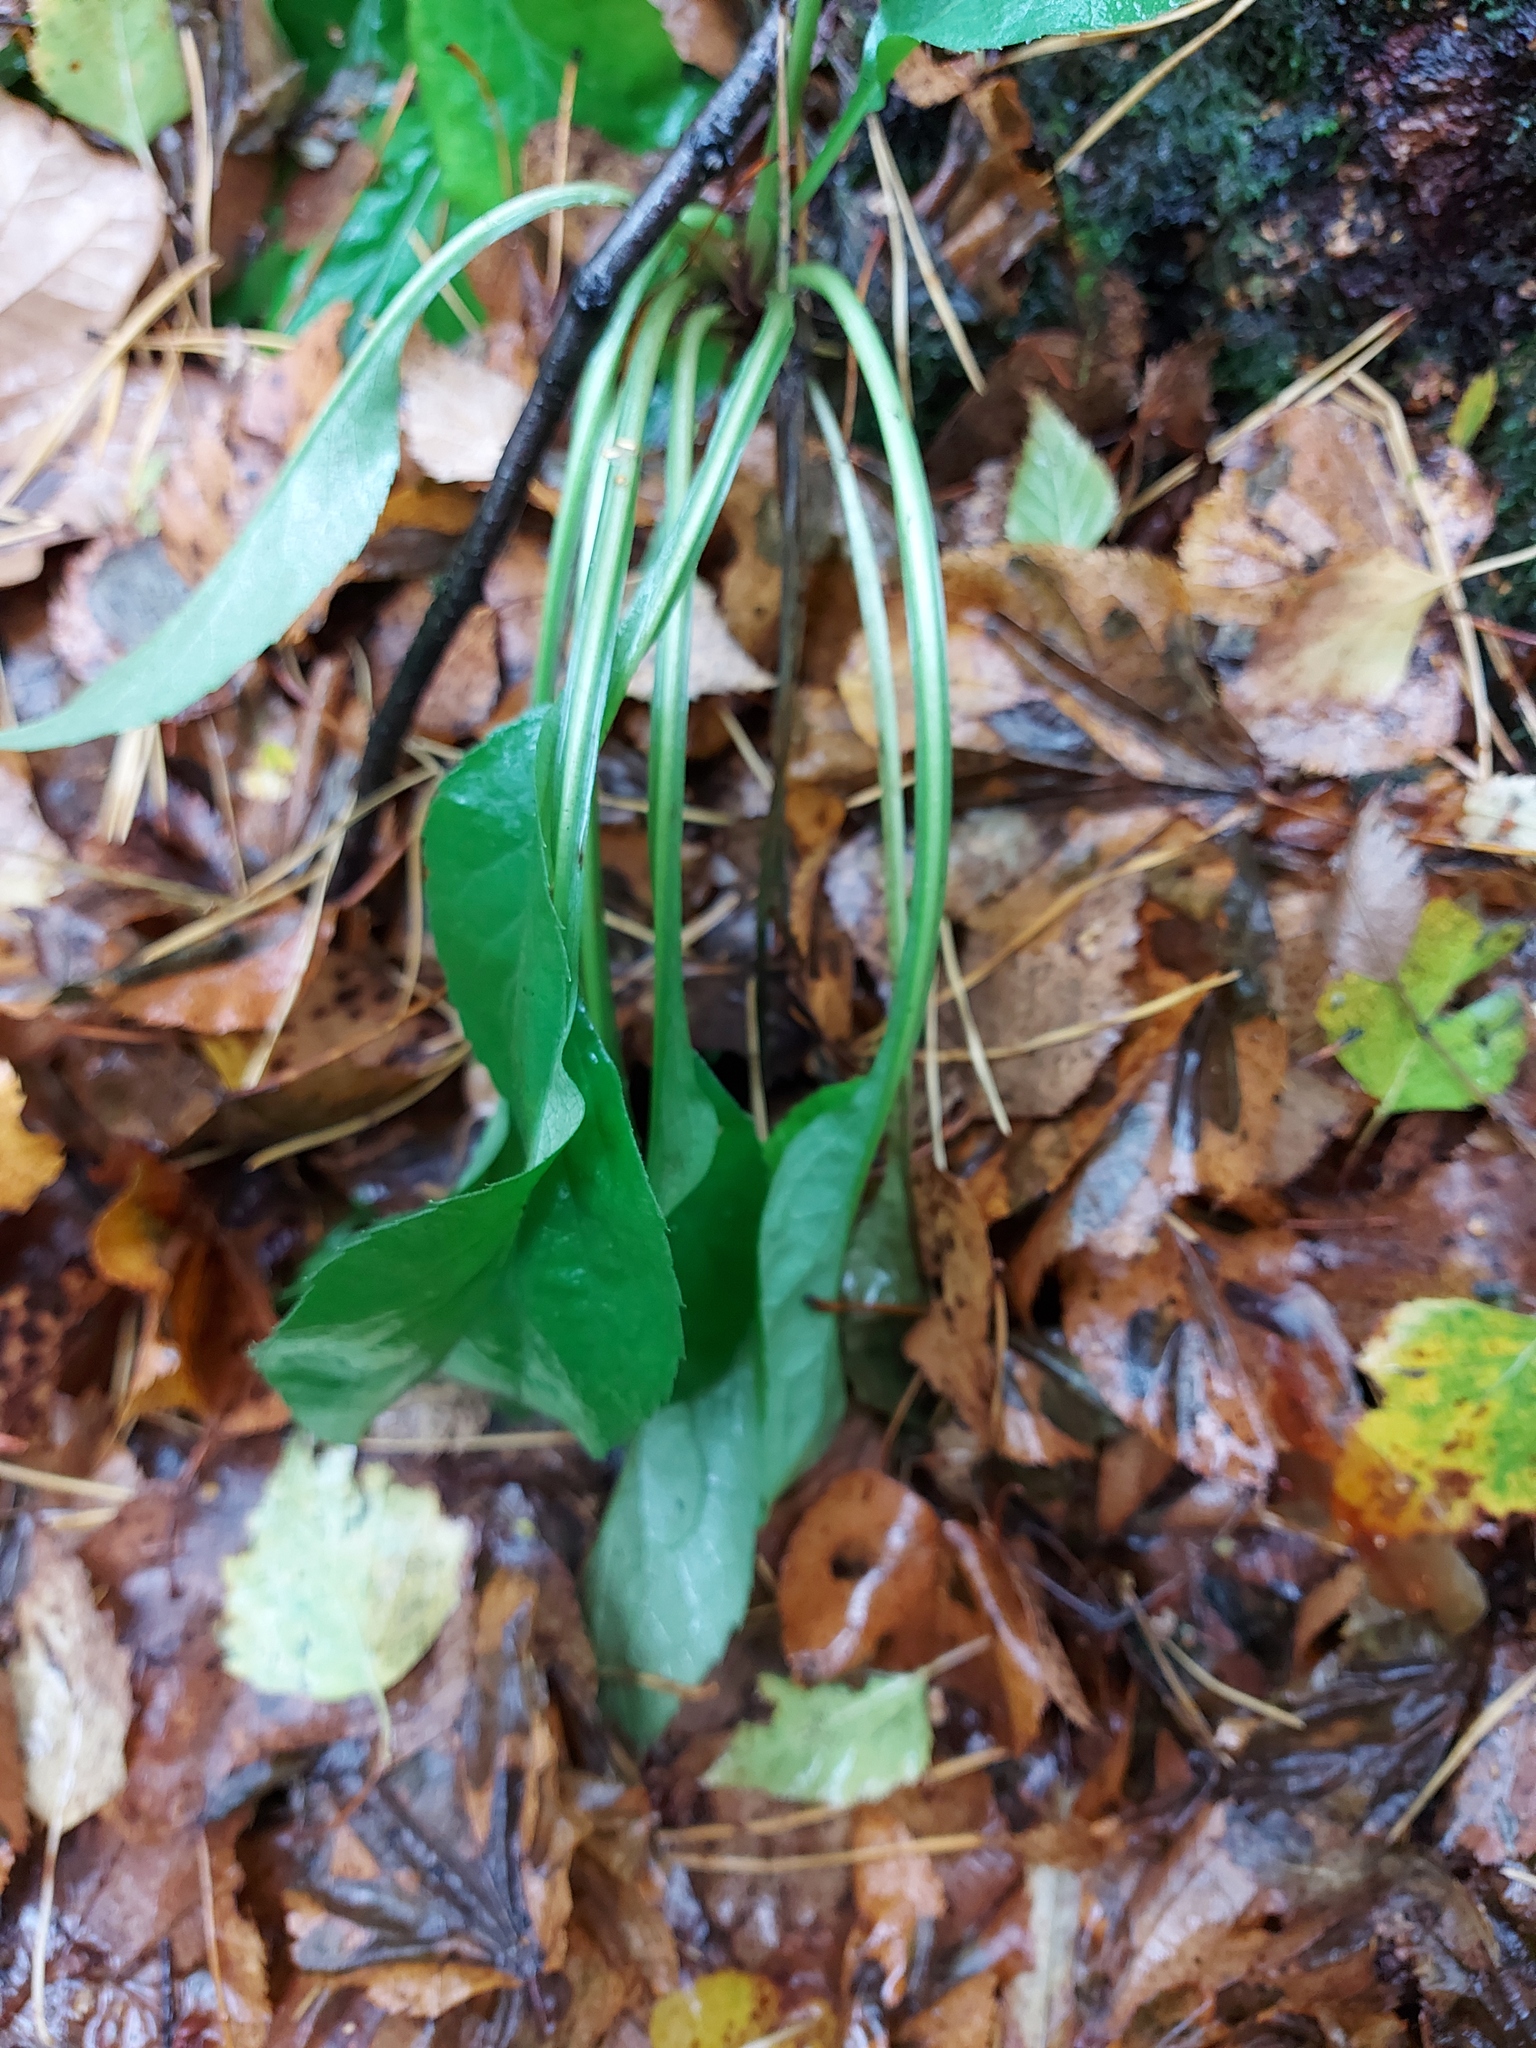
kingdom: Plantae
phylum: Tracheophyta
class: Magnoliopsida
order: Asterales
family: Asteraceae
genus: Solidago
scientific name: Solidago virgaurea
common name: Goldenrod
